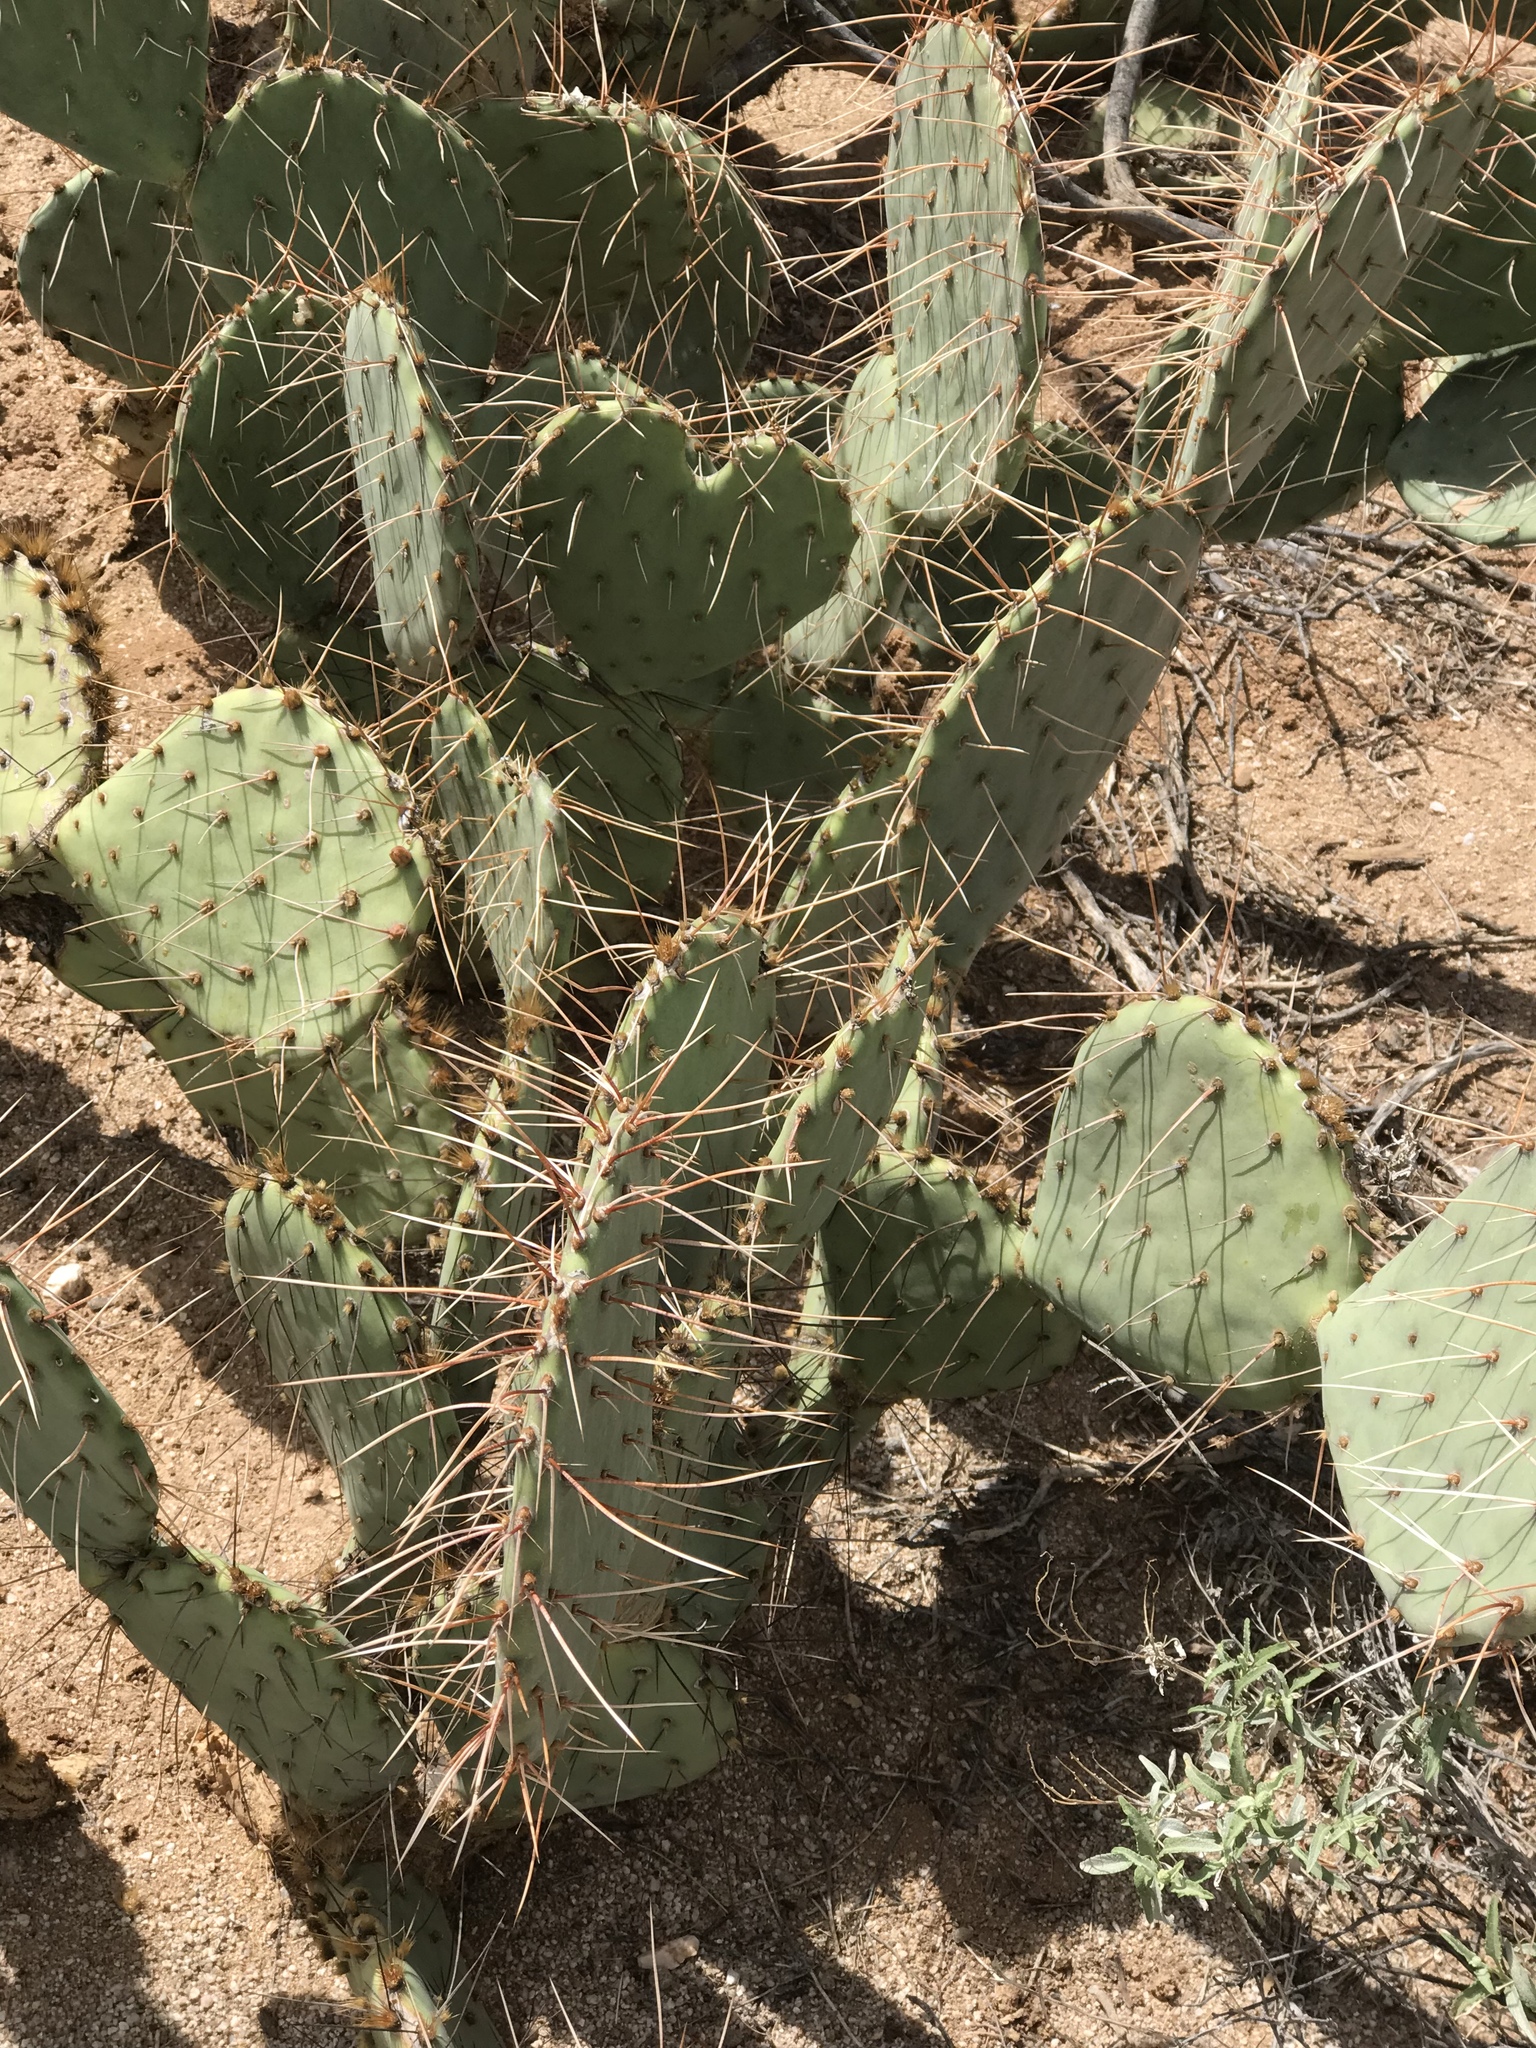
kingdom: Plantae
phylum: Tracheophyta
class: Magnoliopsida
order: Caryophyllales
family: Cactaceae
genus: Opuntia
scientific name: Opuntia phaeacantha
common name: New mexico prickly-pear
